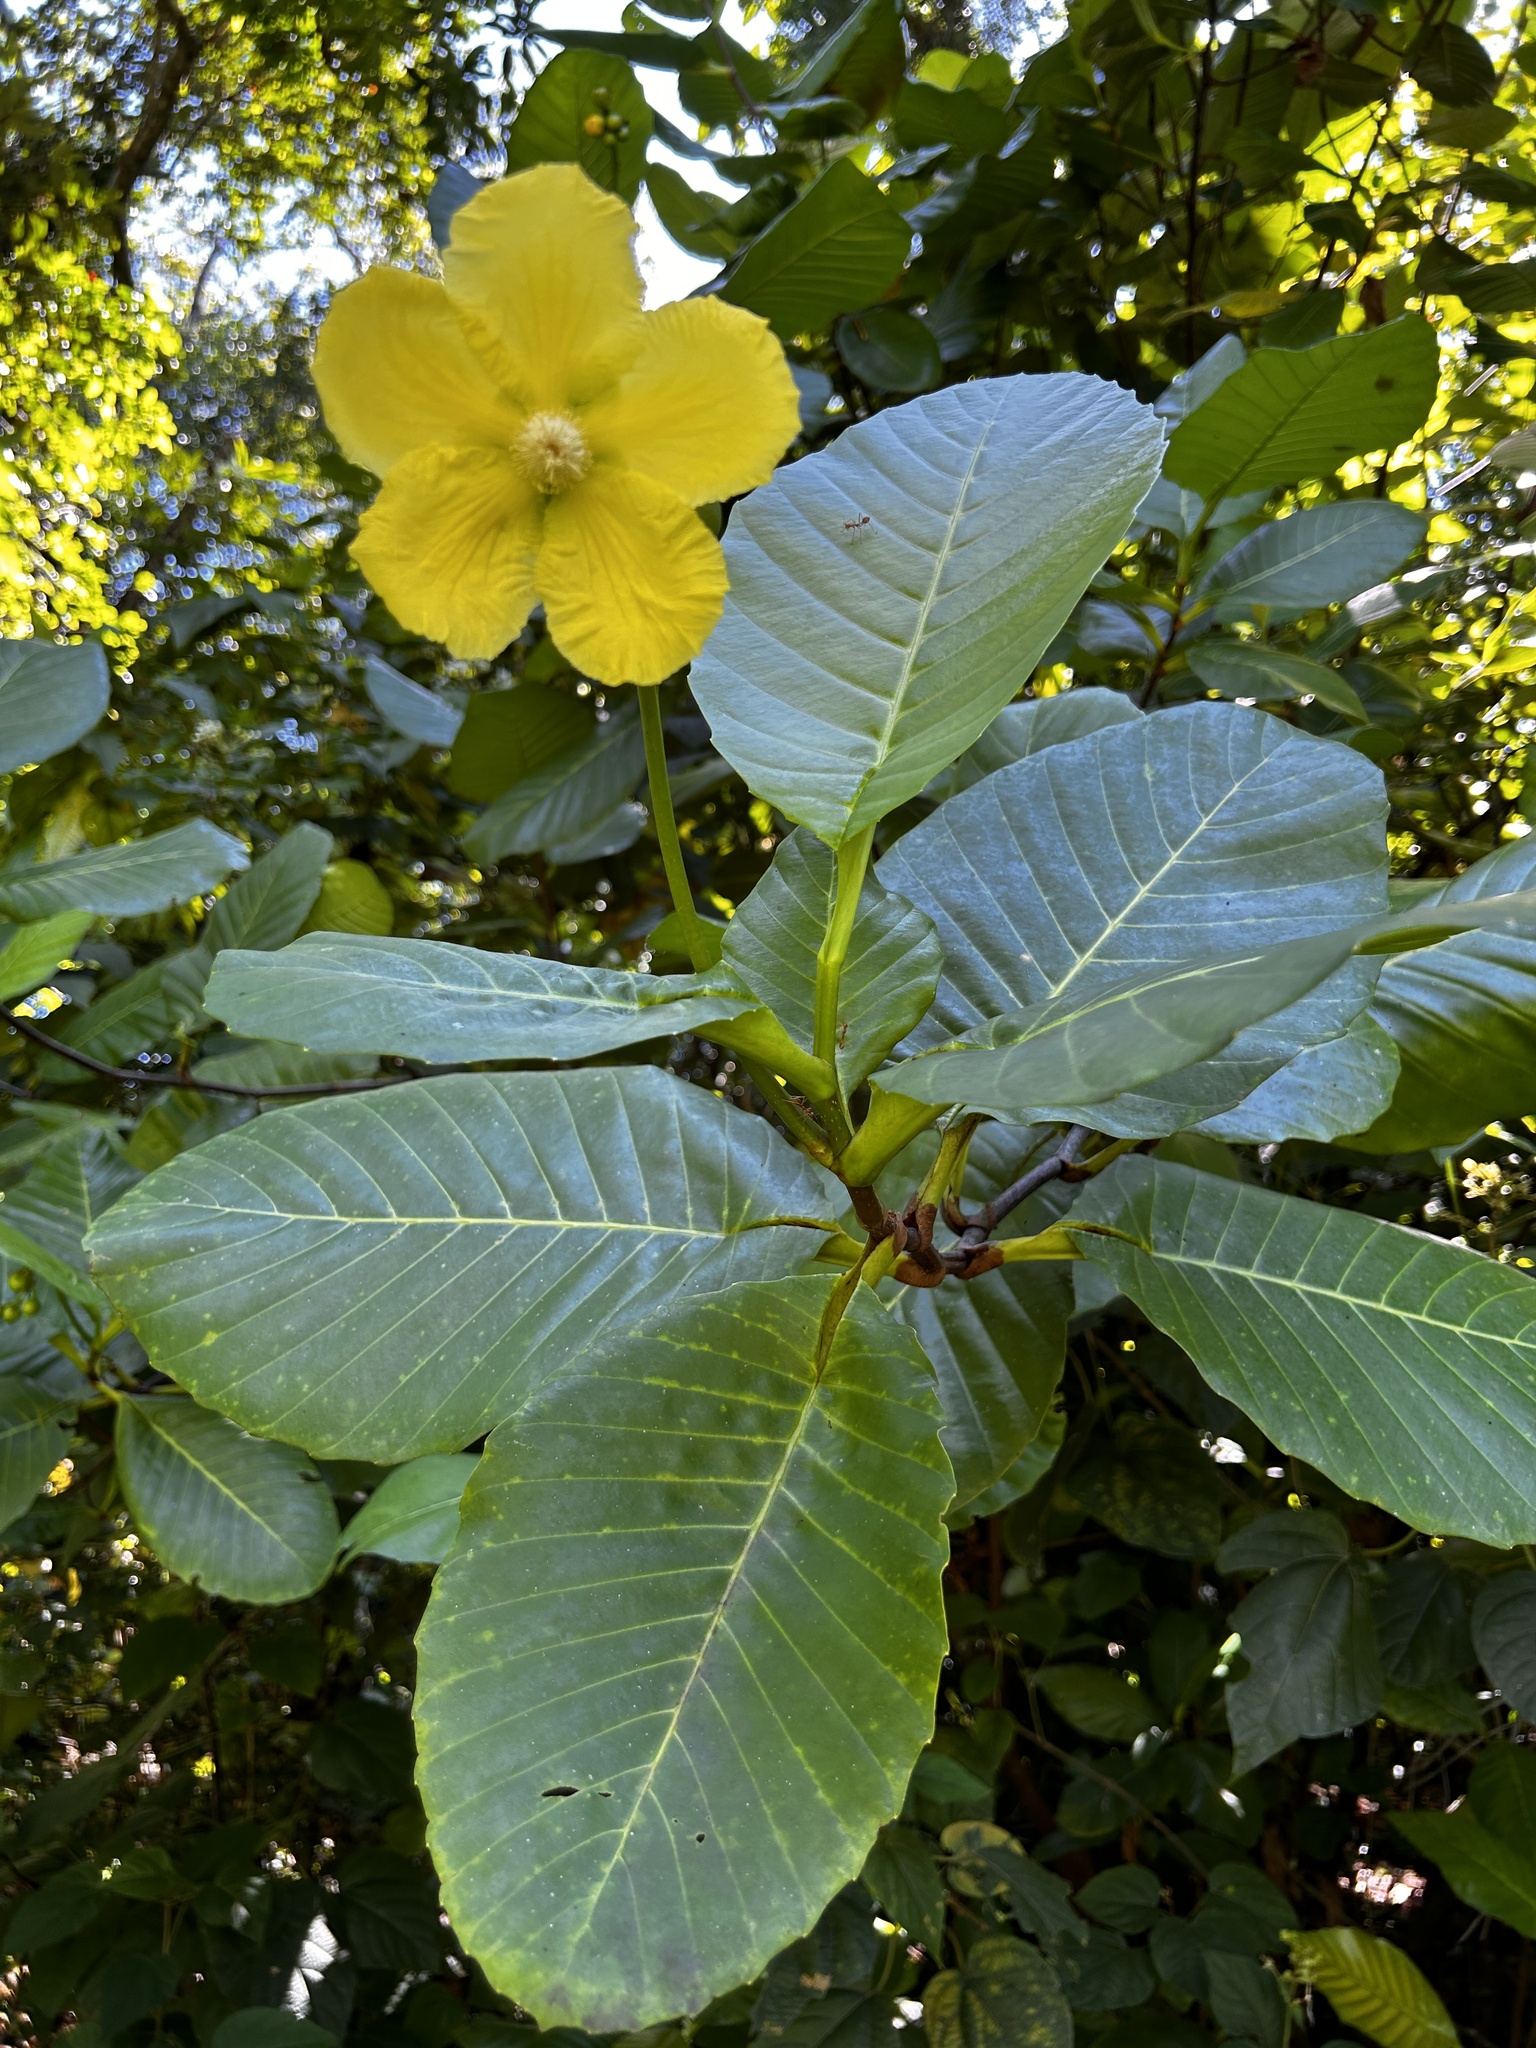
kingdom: Plantae
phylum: Tracheophyta
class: Magnoliopsida
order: Dilleniales
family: Dilleniaceae
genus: Dillenia
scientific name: Dillenia suffruticosa
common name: Shrubby dillenia
